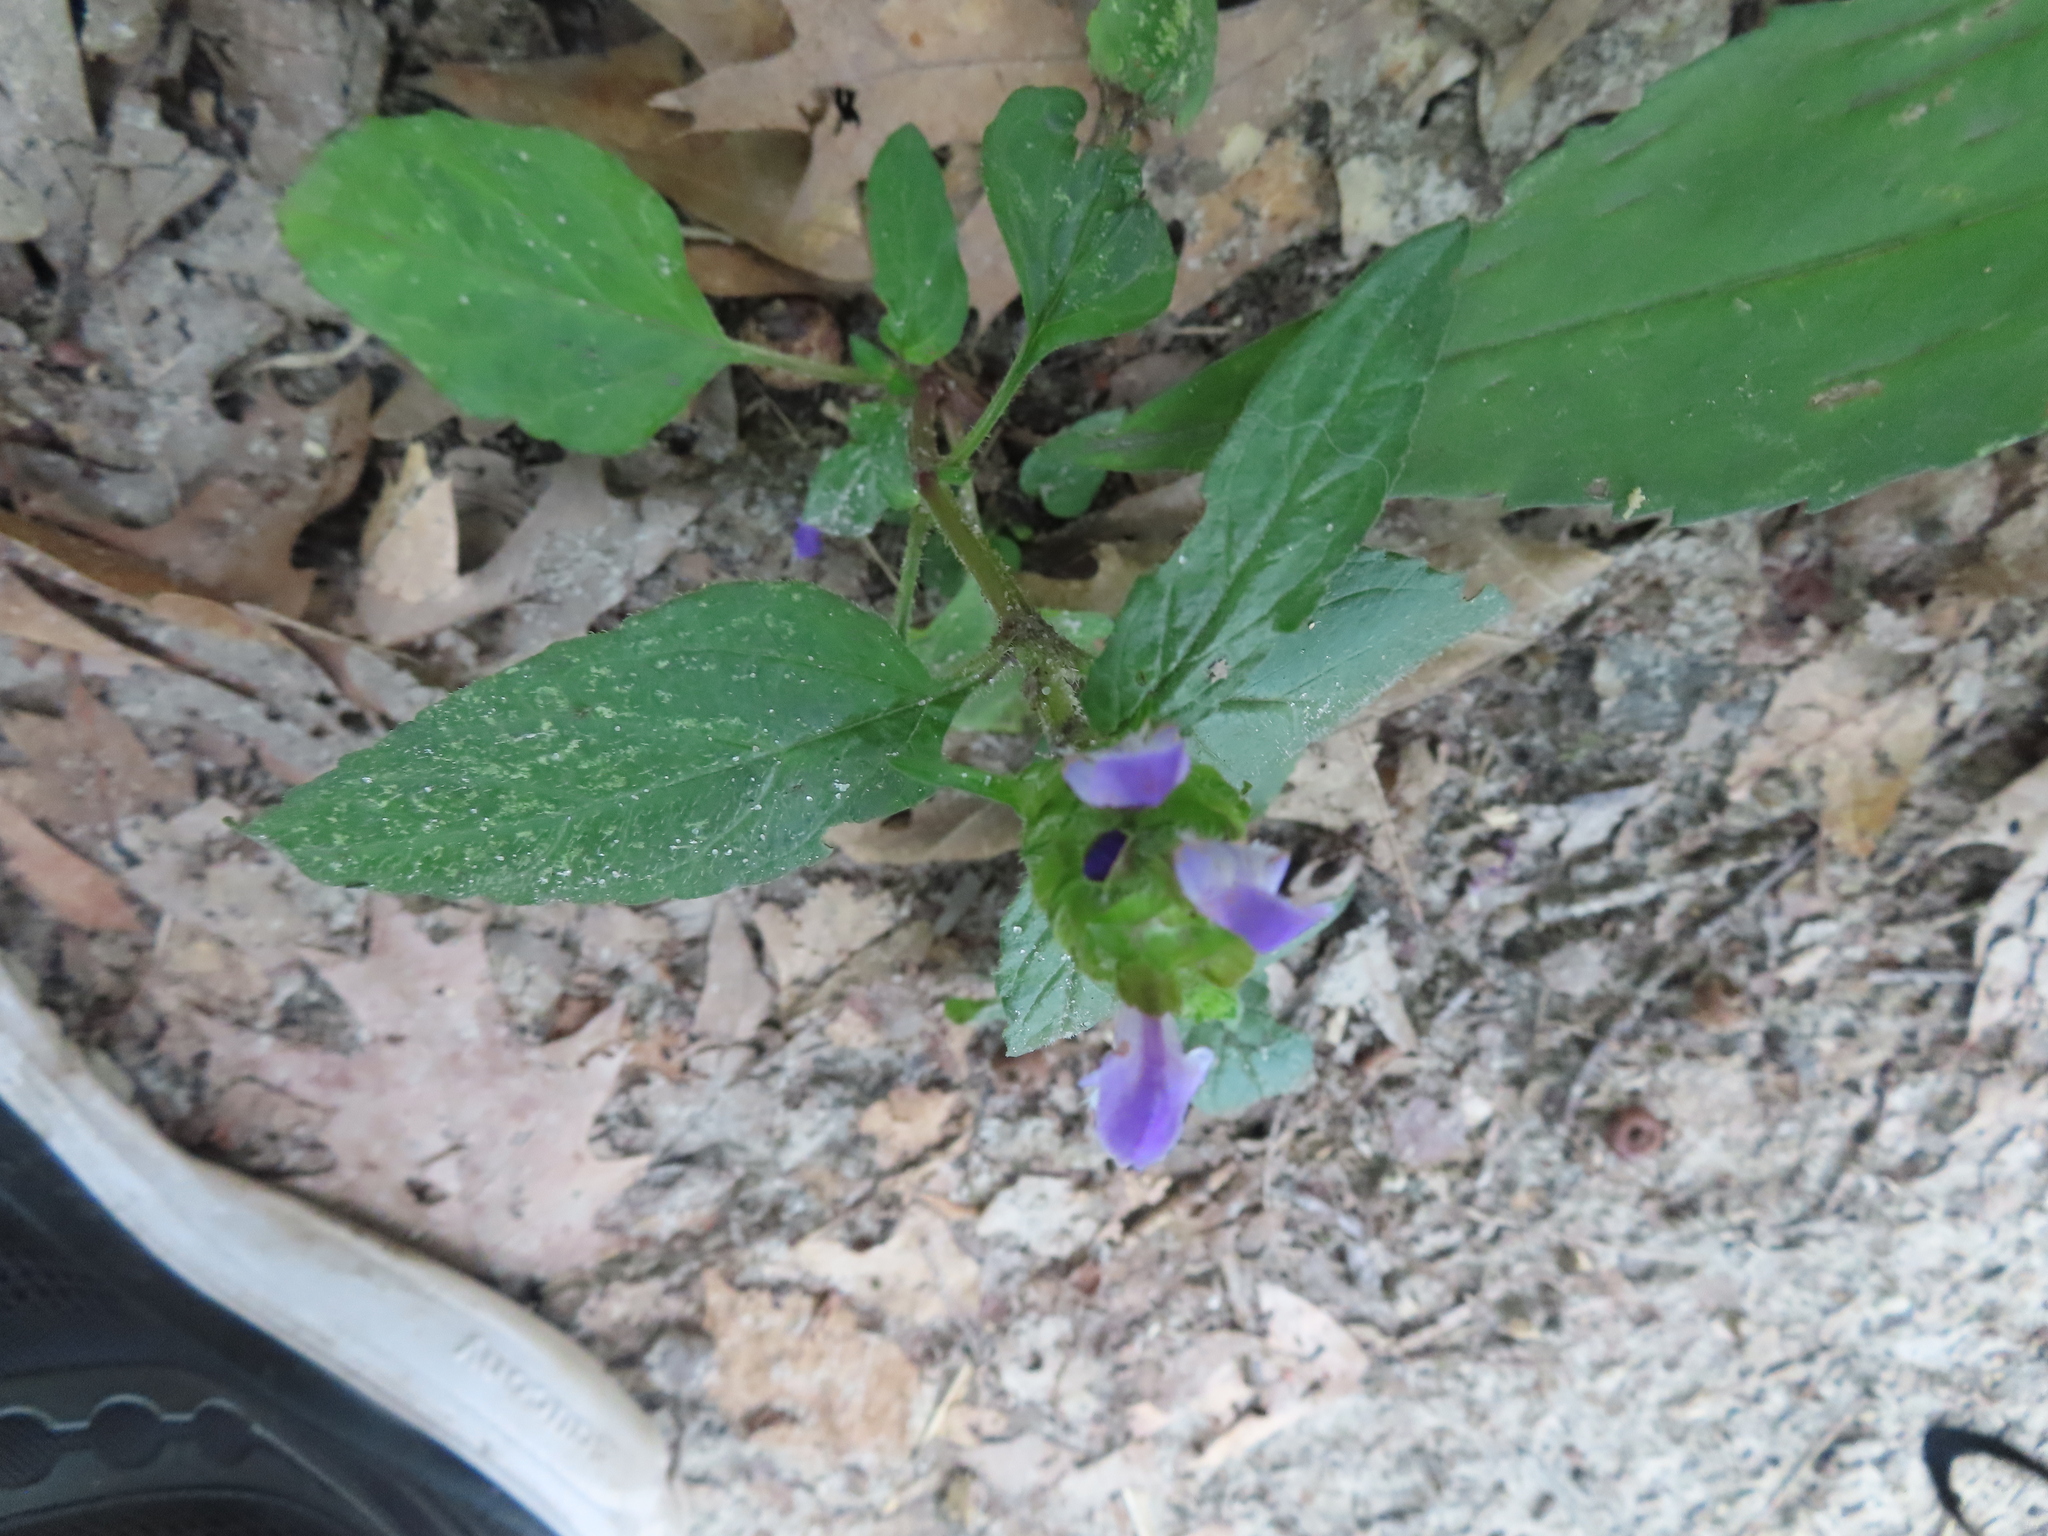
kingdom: Plantae
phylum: Tracheophyta
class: Magnoliopsida
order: Lamiales
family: Lamiaceae
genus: Prunella
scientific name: Prunella vulgaris
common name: Heal-all
